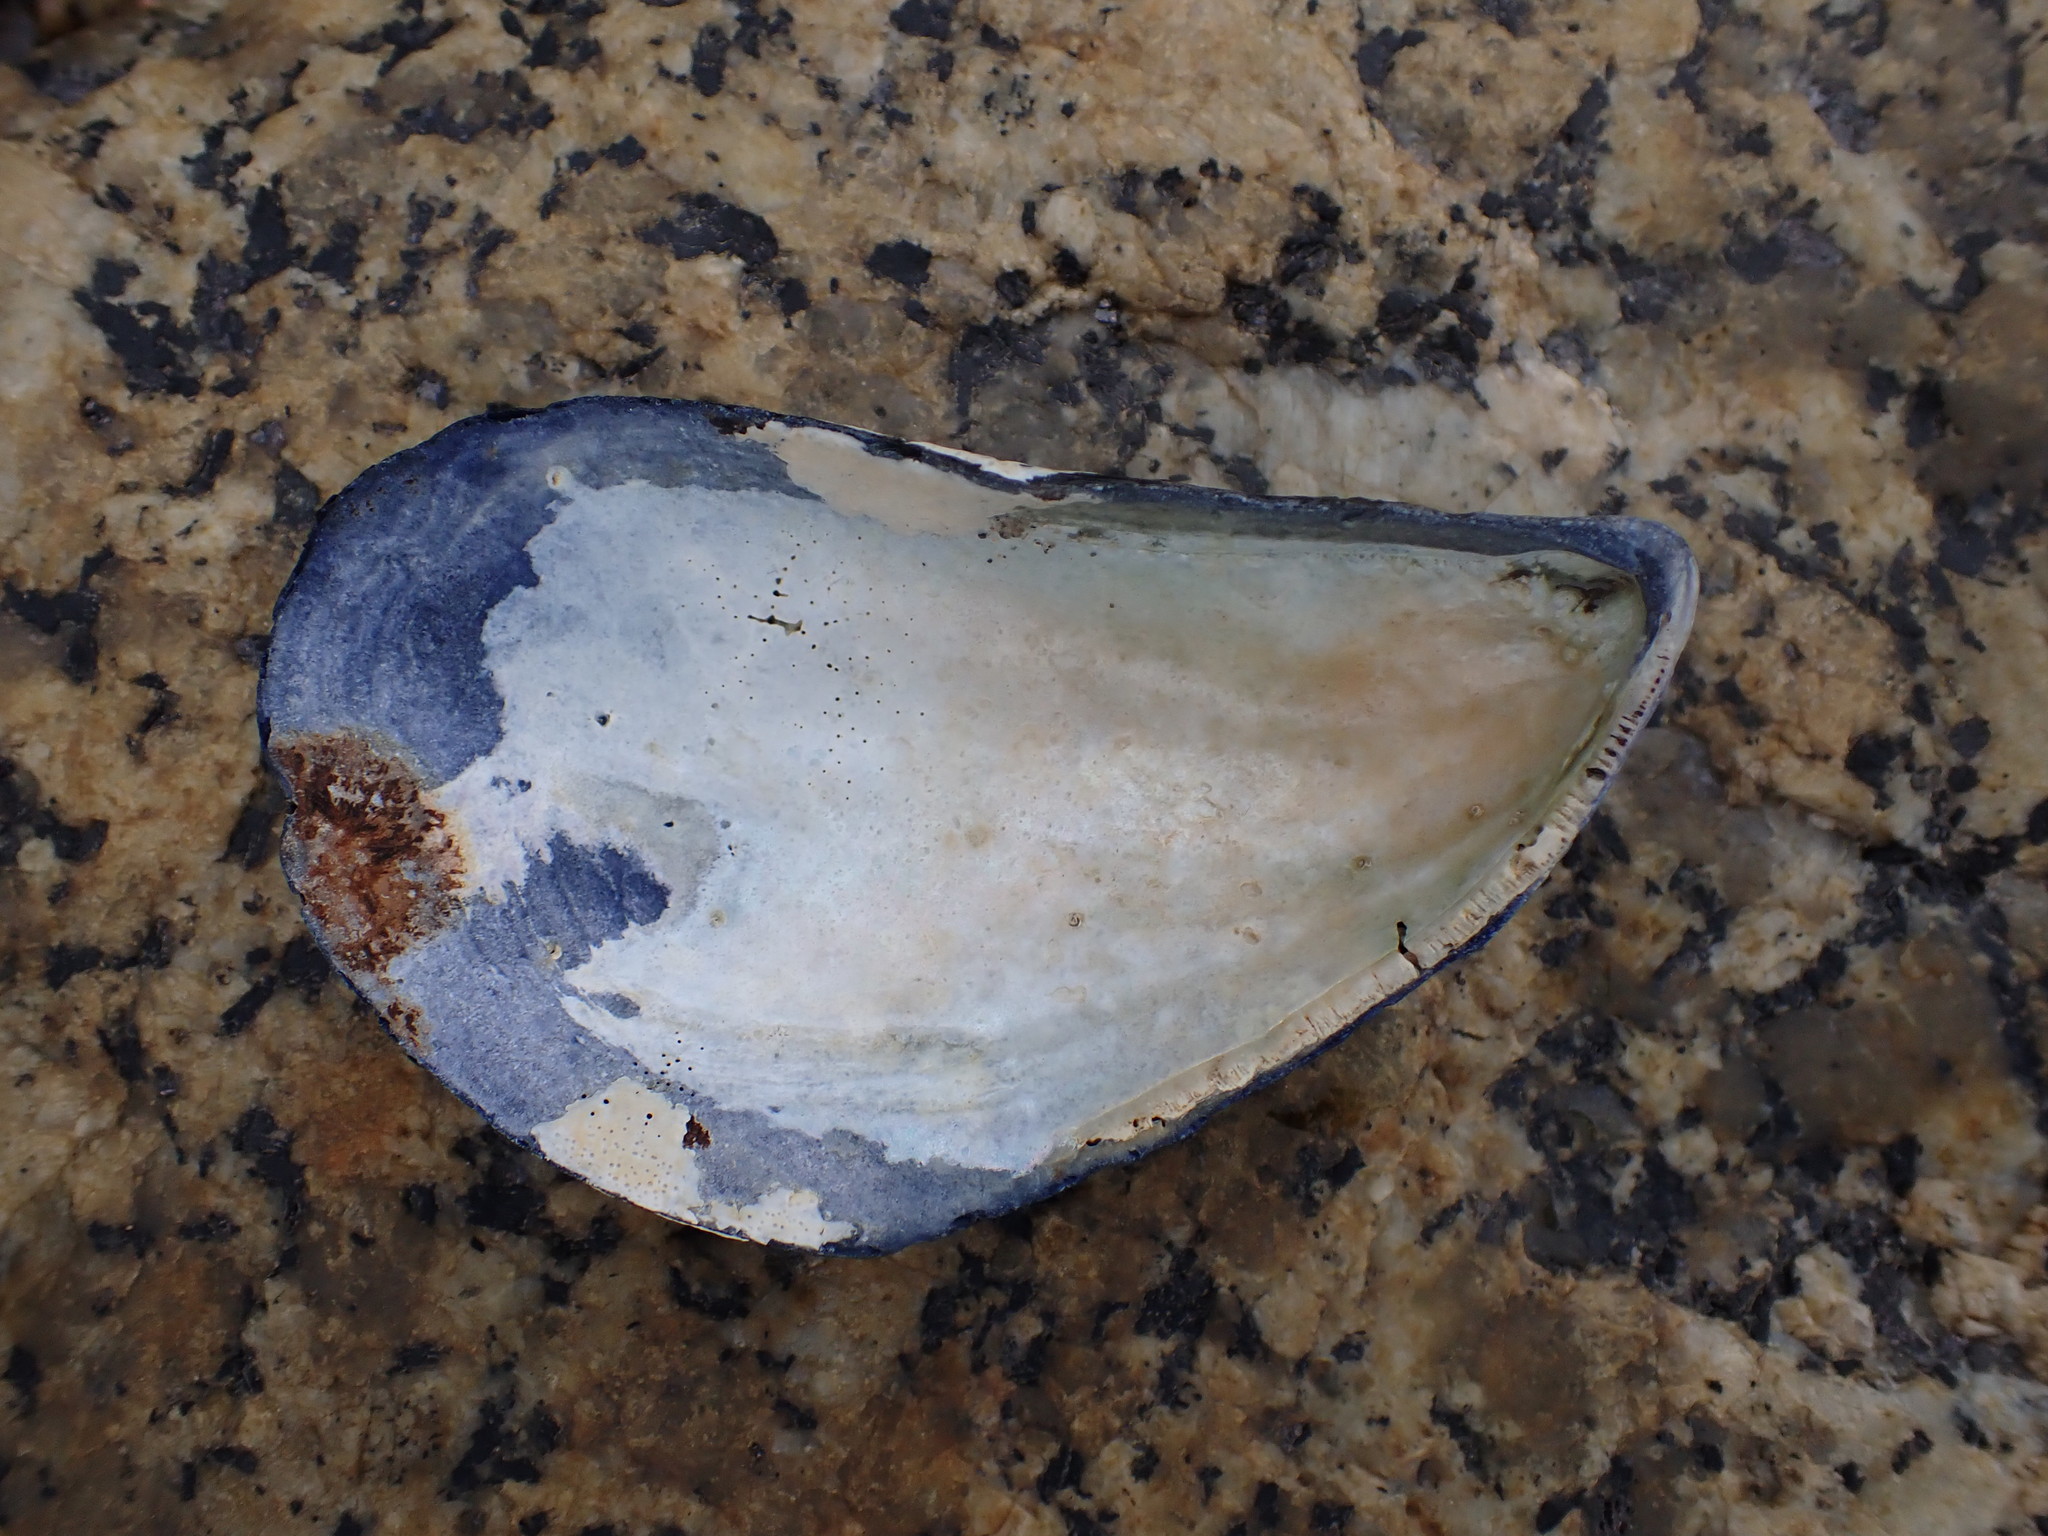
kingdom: Animalia
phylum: Mollusca
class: Bivalvia
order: Mytilida
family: Mytilidae
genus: Mytilus
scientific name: Mytilus edulis
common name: Blue mussel
